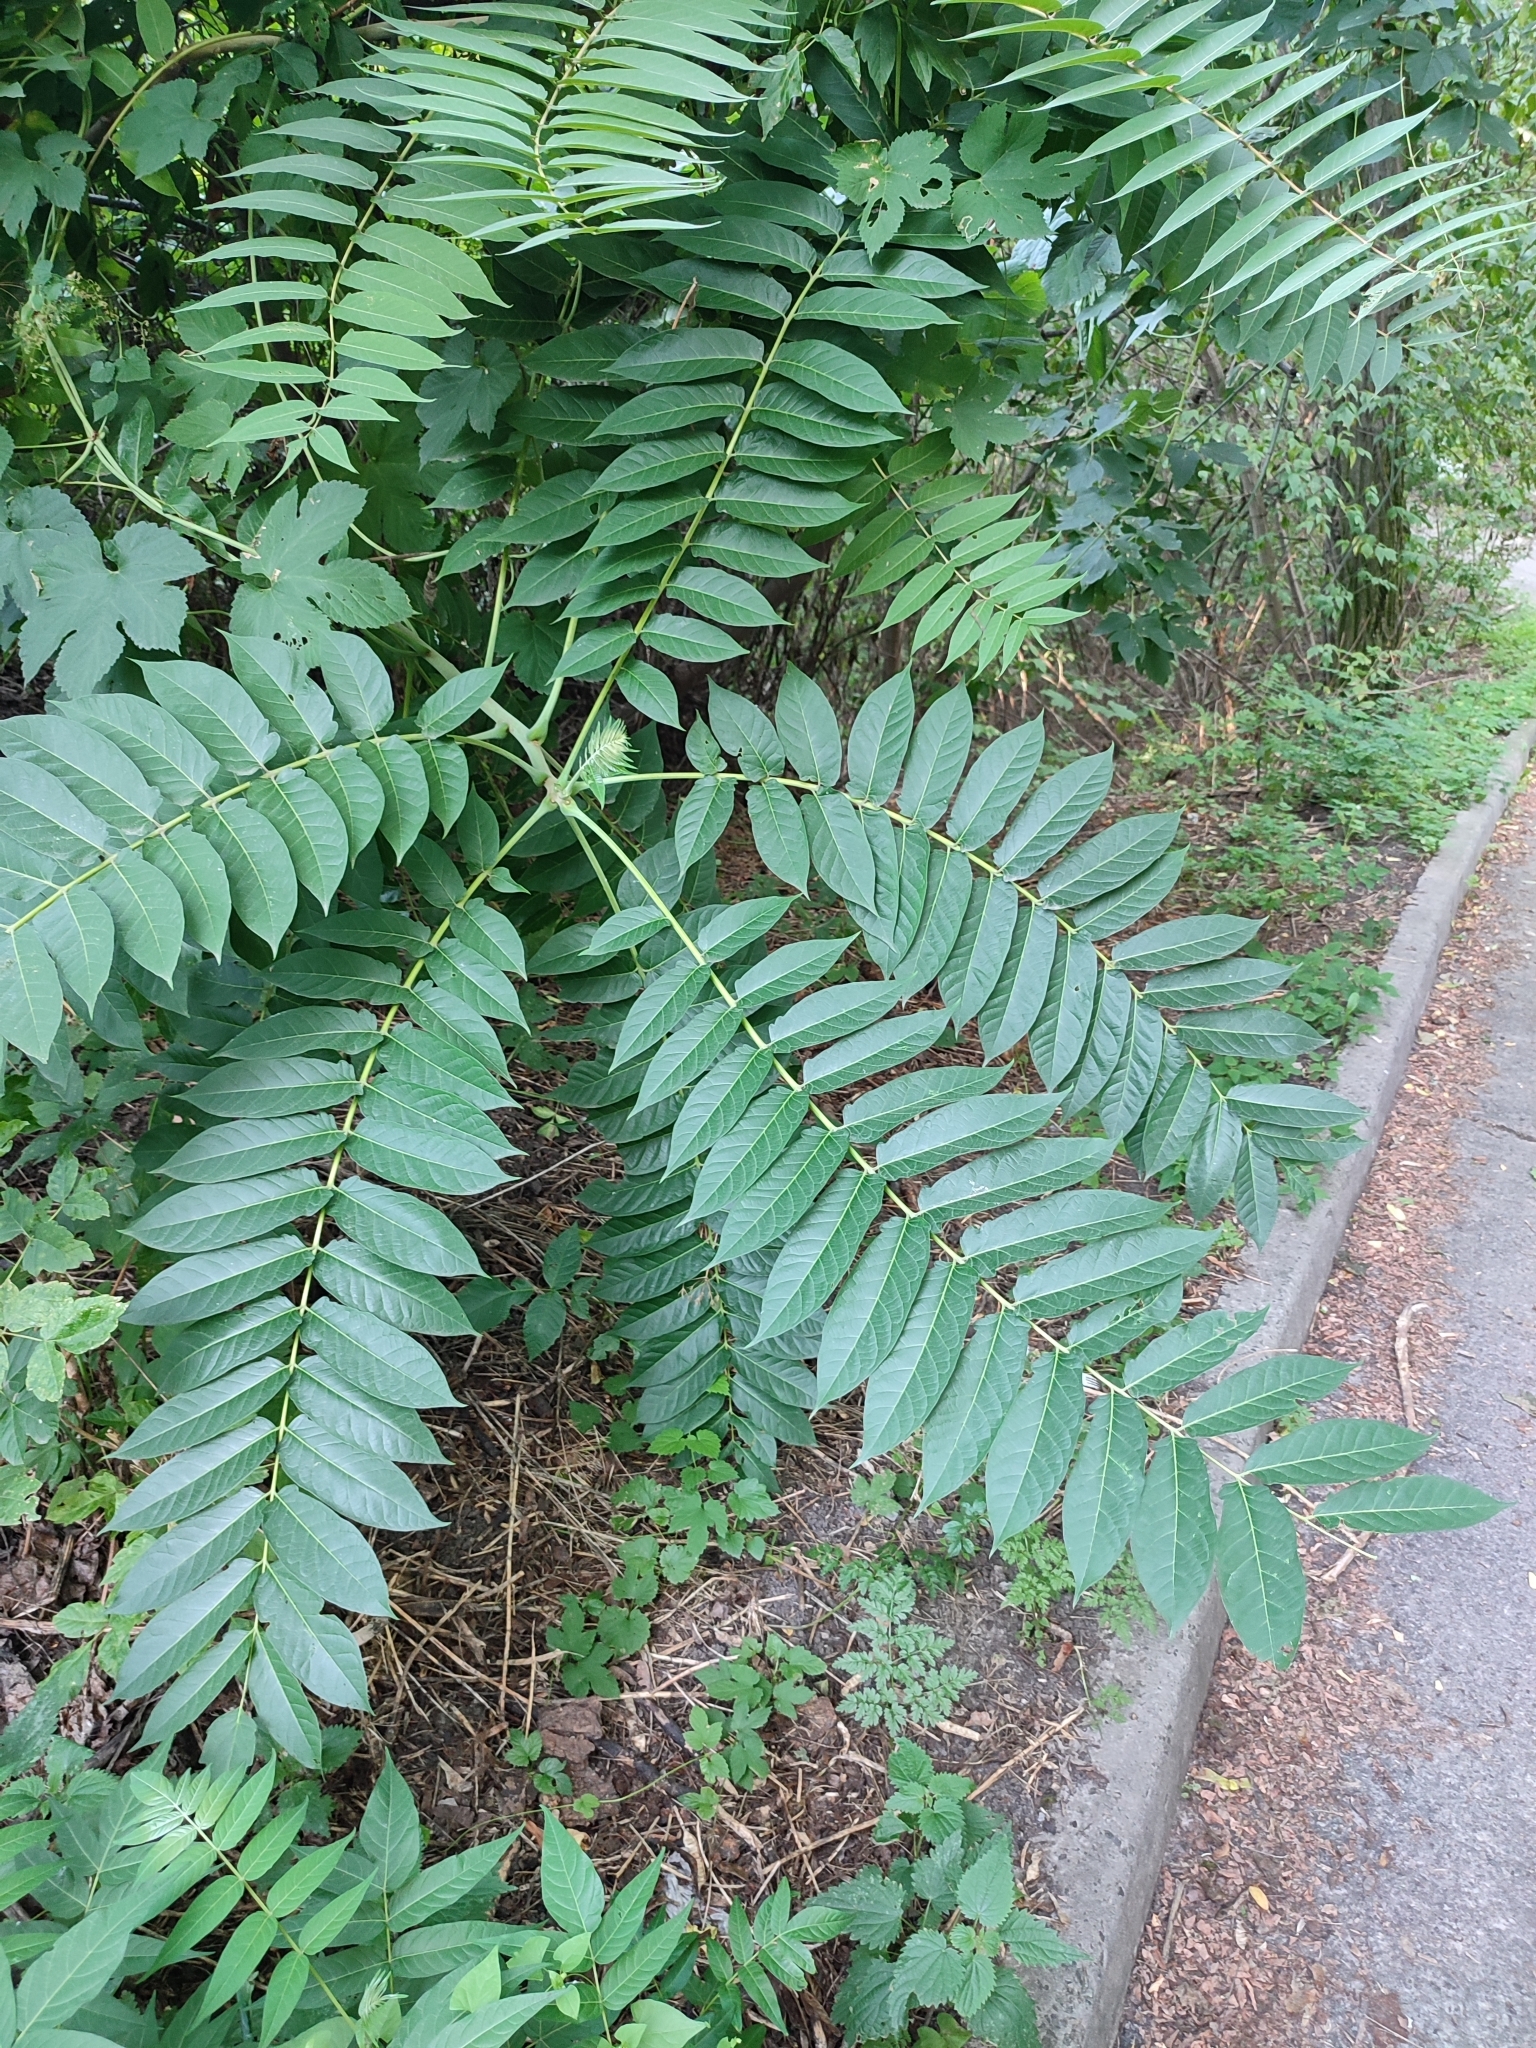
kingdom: Plantae
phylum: Tracheophyta
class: Magnoliopsida
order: Sapindales
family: Simaroubaceae
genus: Ailanthus
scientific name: Ailanthus altissima
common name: Tree-of-heaven
